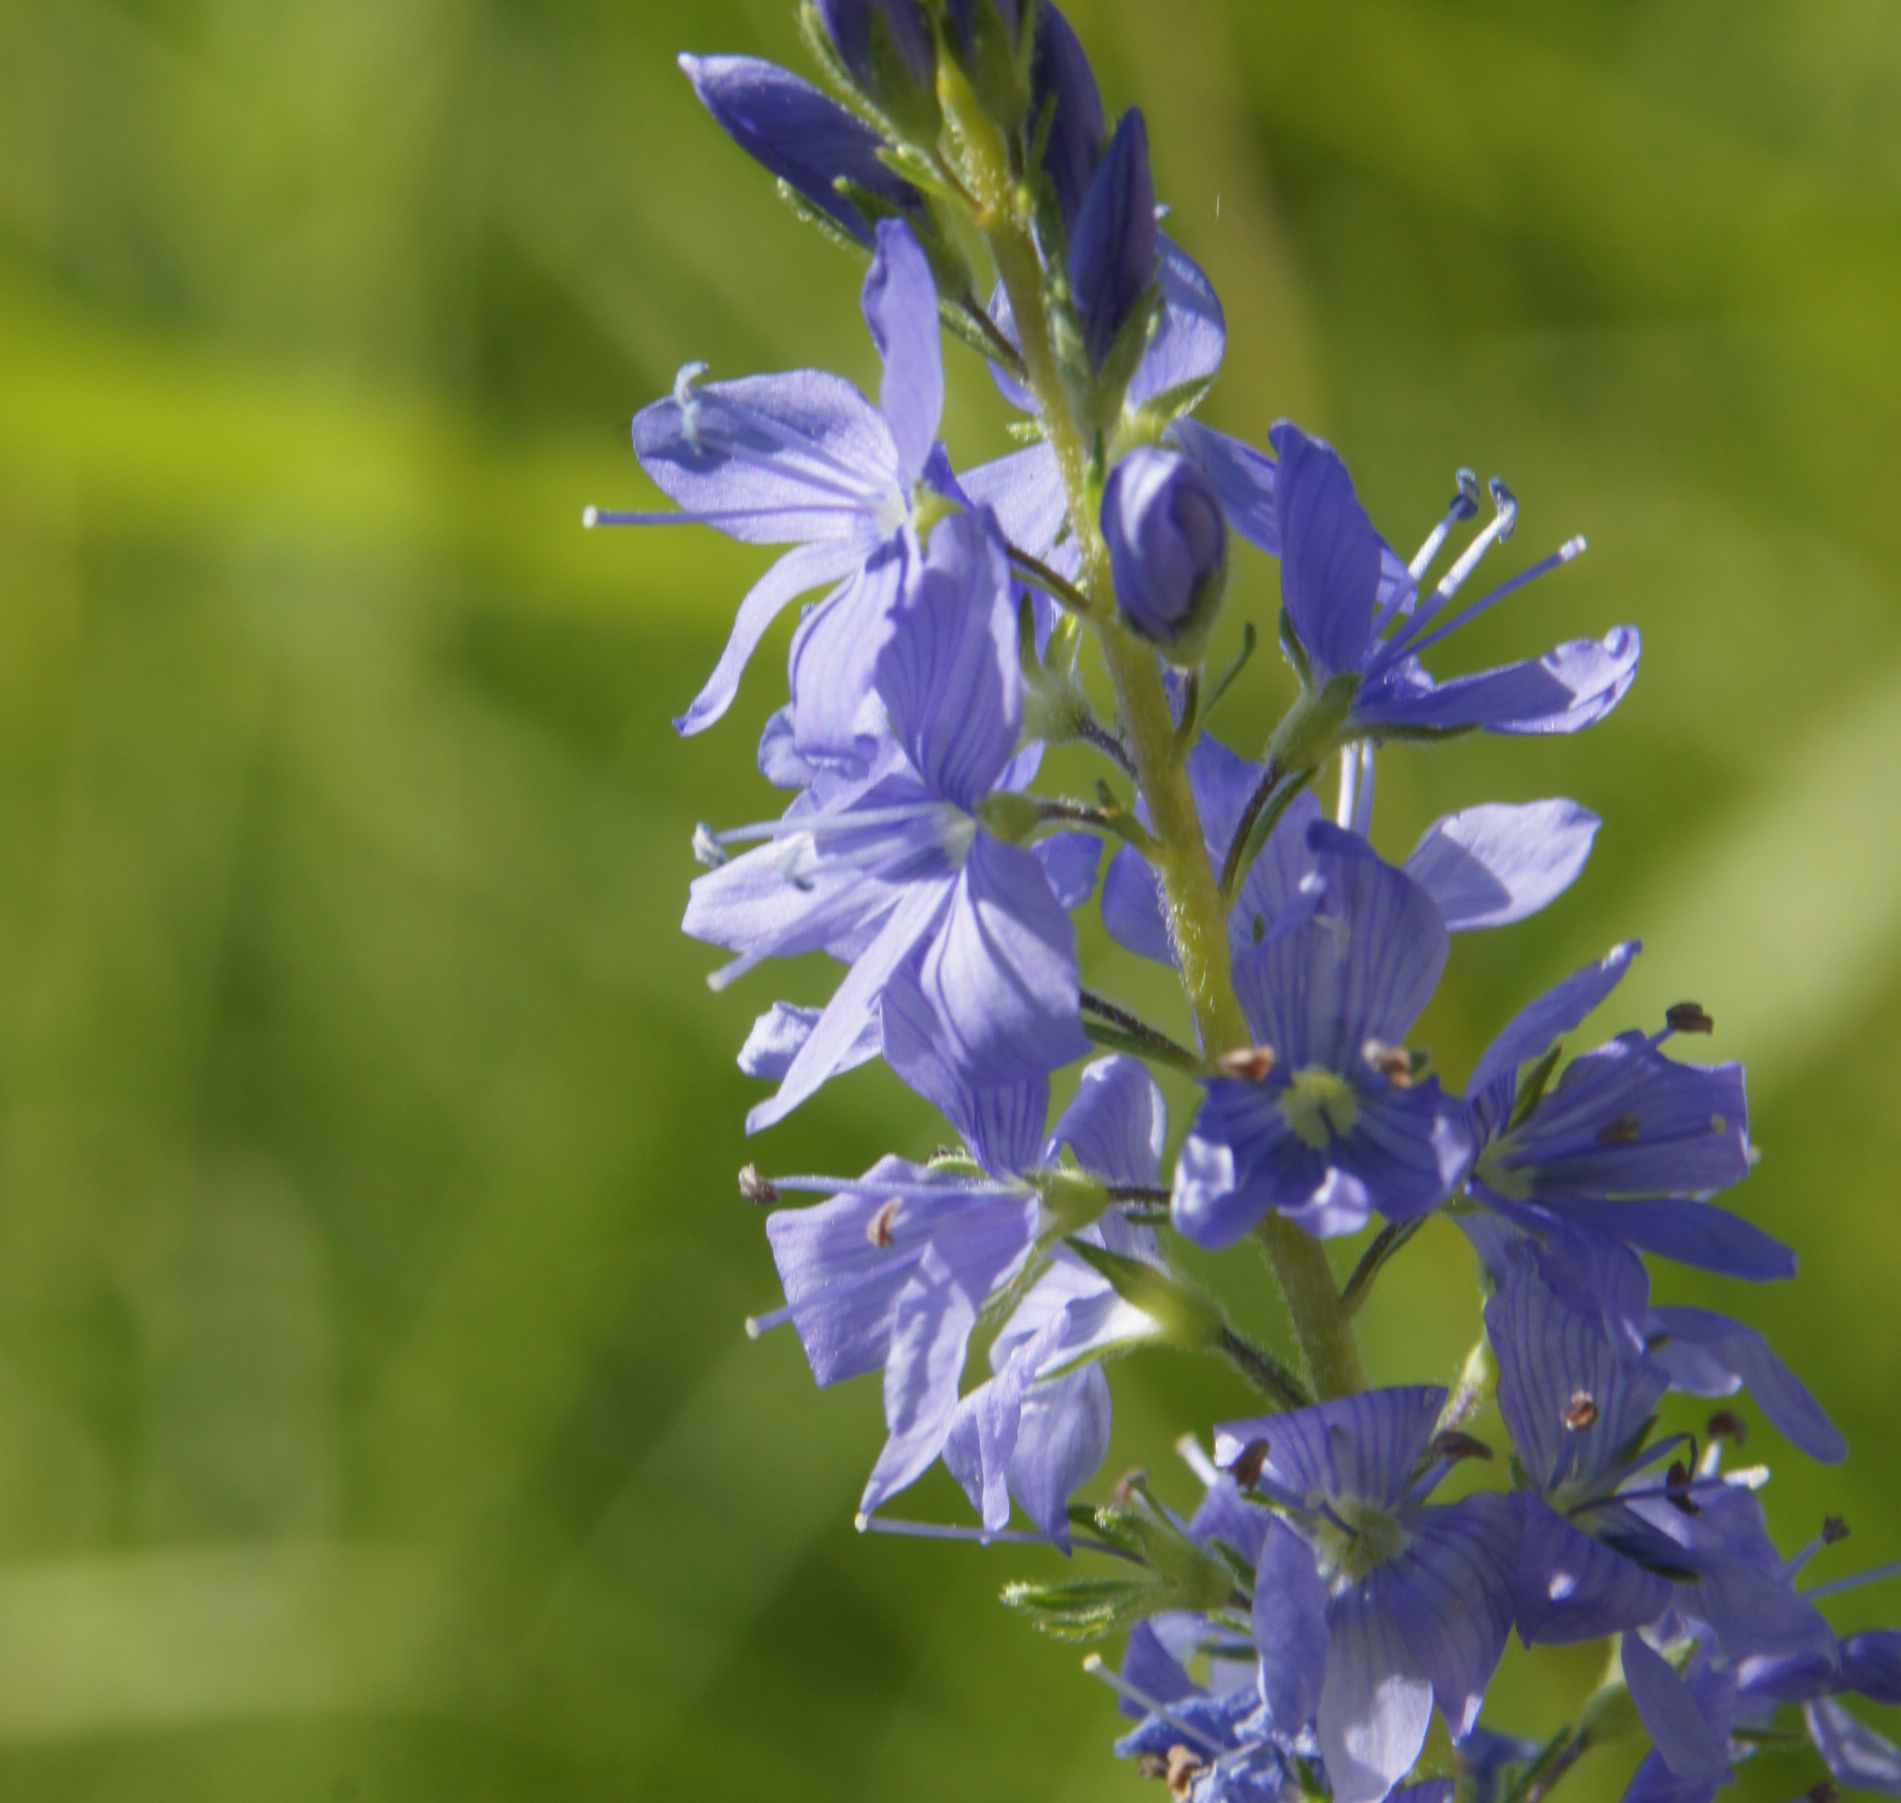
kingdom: Plantae
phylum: Tracheophyta
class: Magnoliopsida
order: Lamiales
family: Plantaginaceae
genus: Veronica
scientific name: Veronica teucrium
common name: Large speedwell
